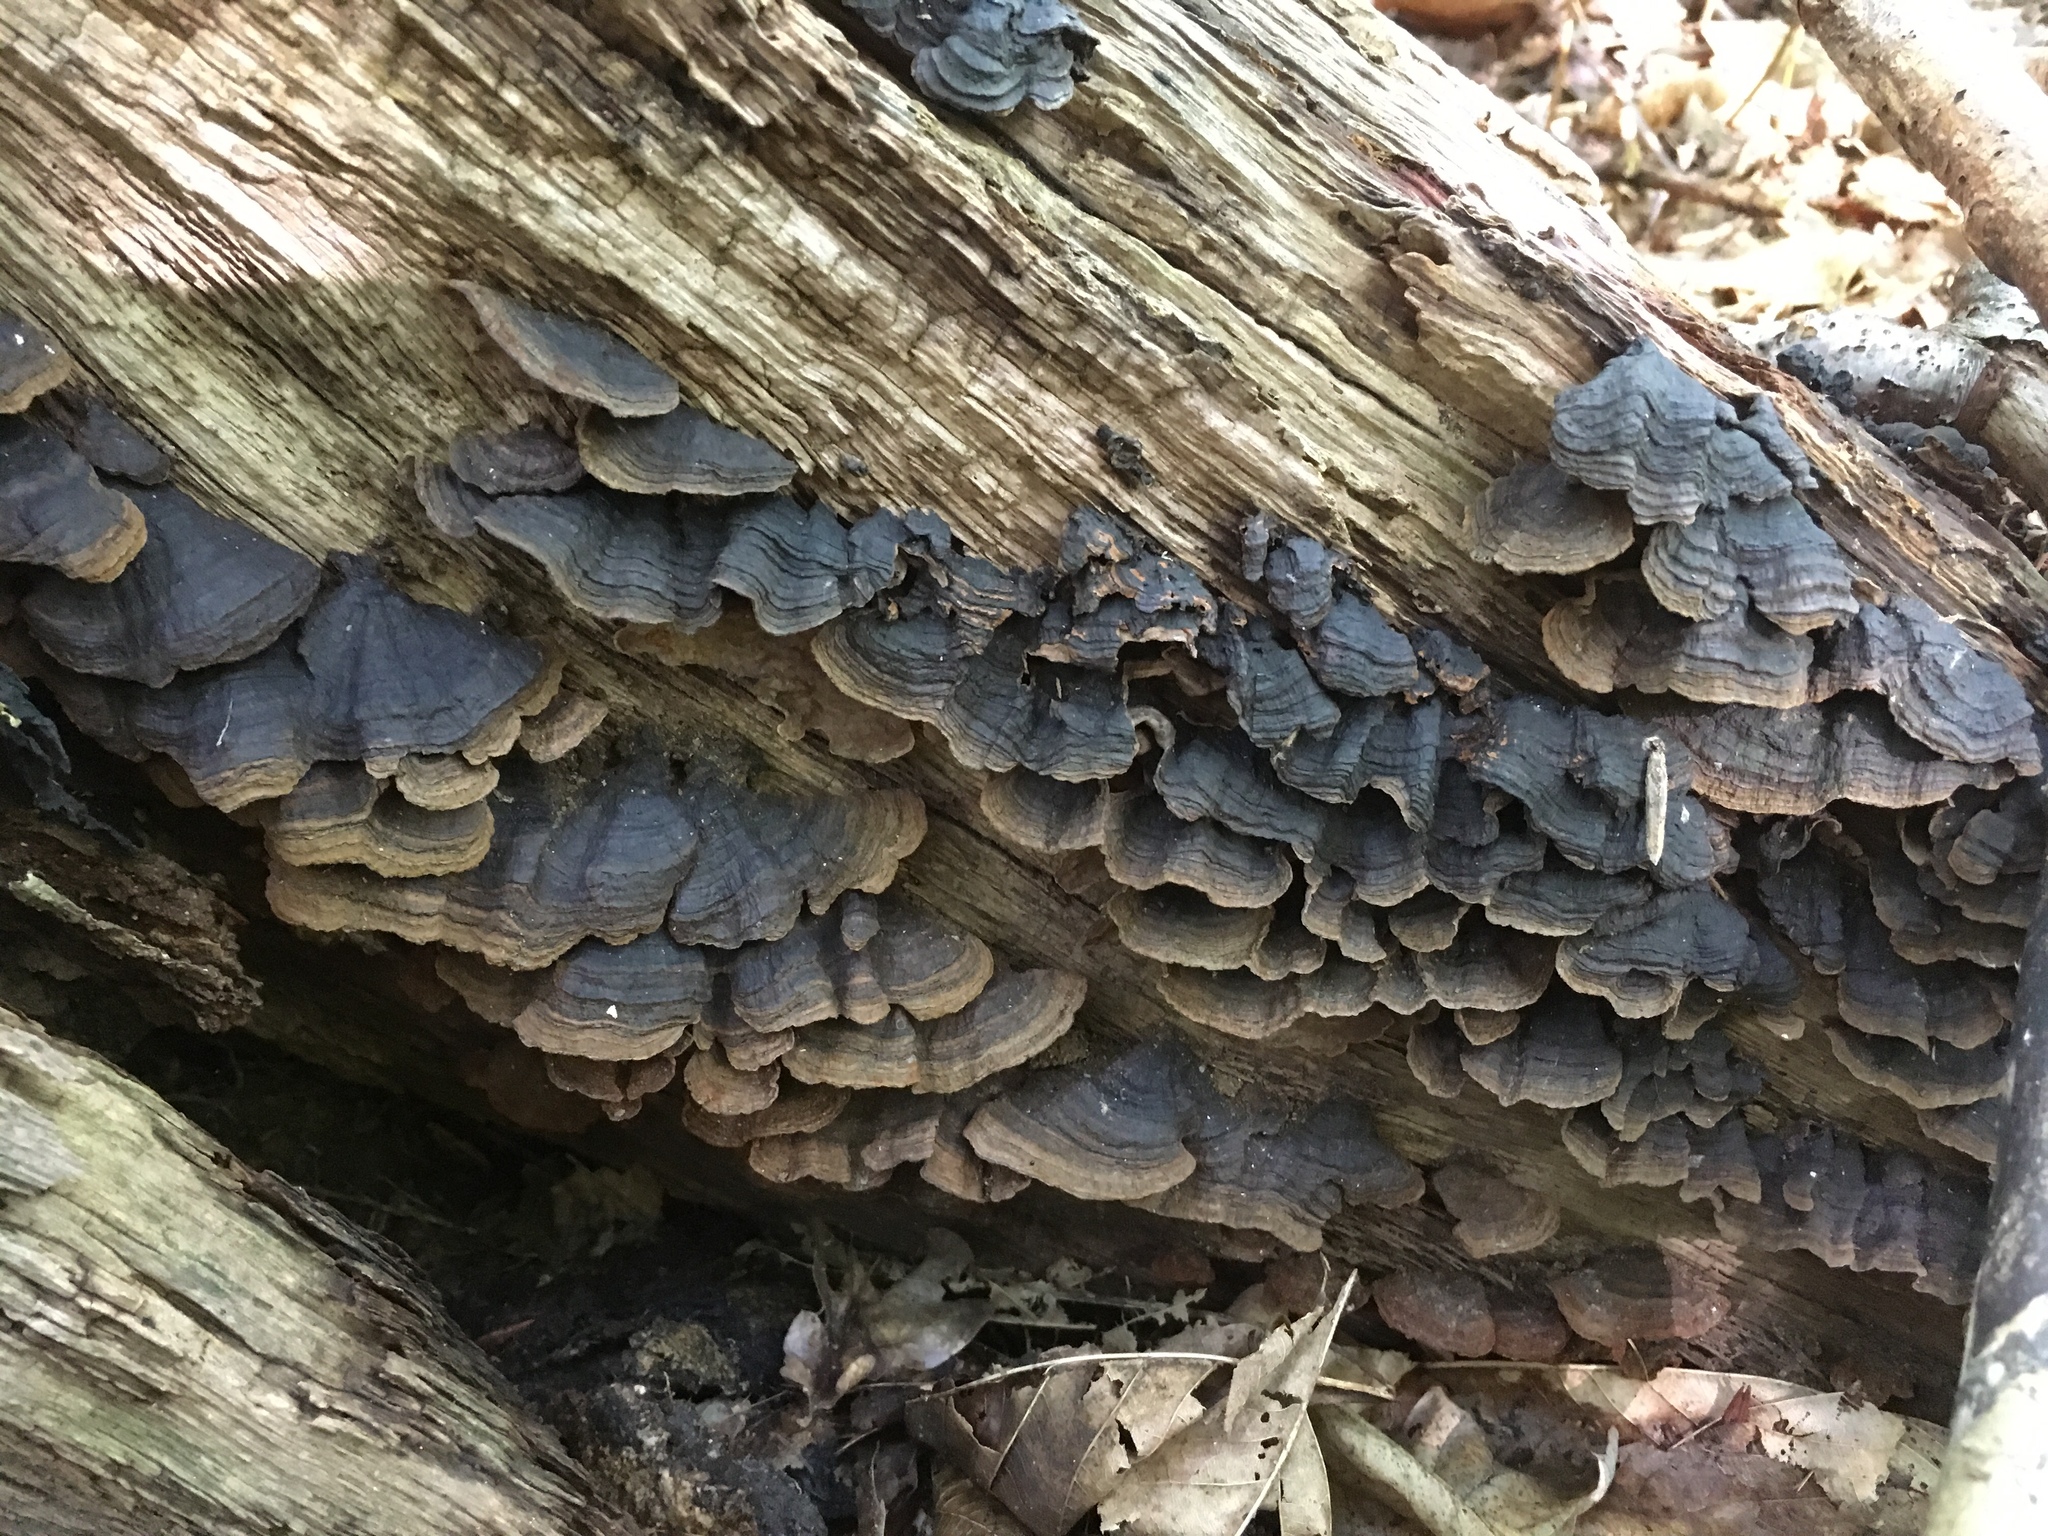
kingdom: Fungi
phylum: Basidiomycota
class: Agaricomycetes
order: Hymenochaetales
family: Hymenochaetaceae
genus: Hymenochaete
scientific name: Hymenochaete rubiginosa
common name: Oak curtain crust
